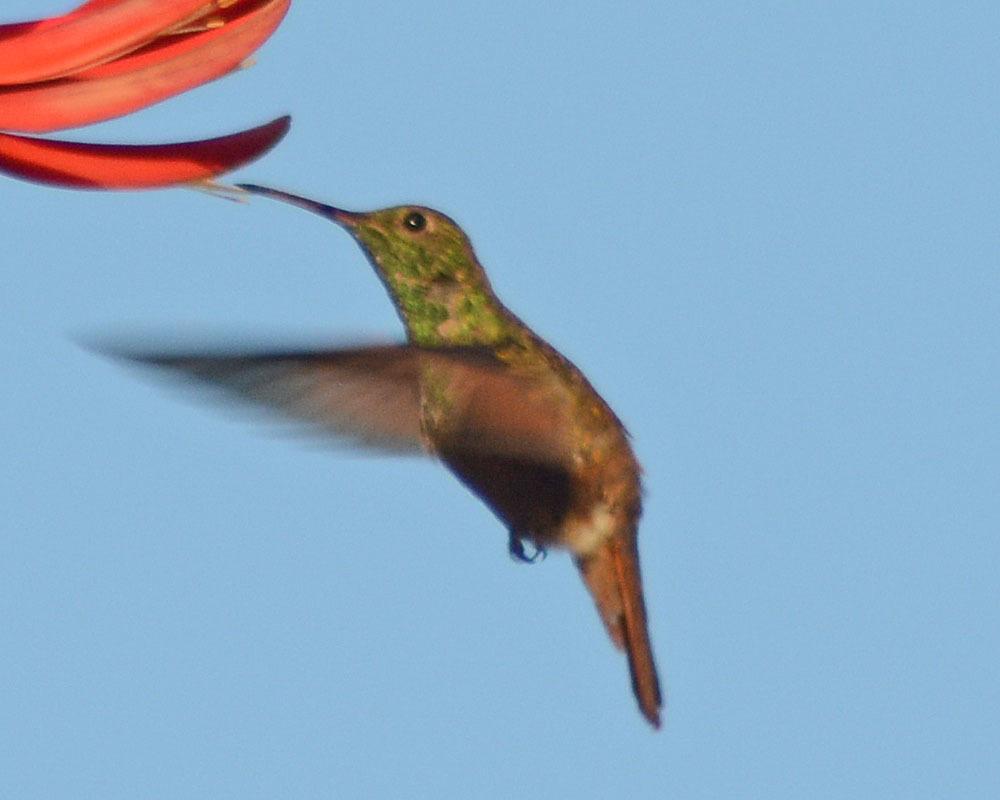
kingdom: Animalia
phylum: Chordata
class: Aves
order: Apodiformes
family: Trochilidae
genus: Saucerottia
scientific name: Saucerottia beryllina
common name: Berylline hummingbird
